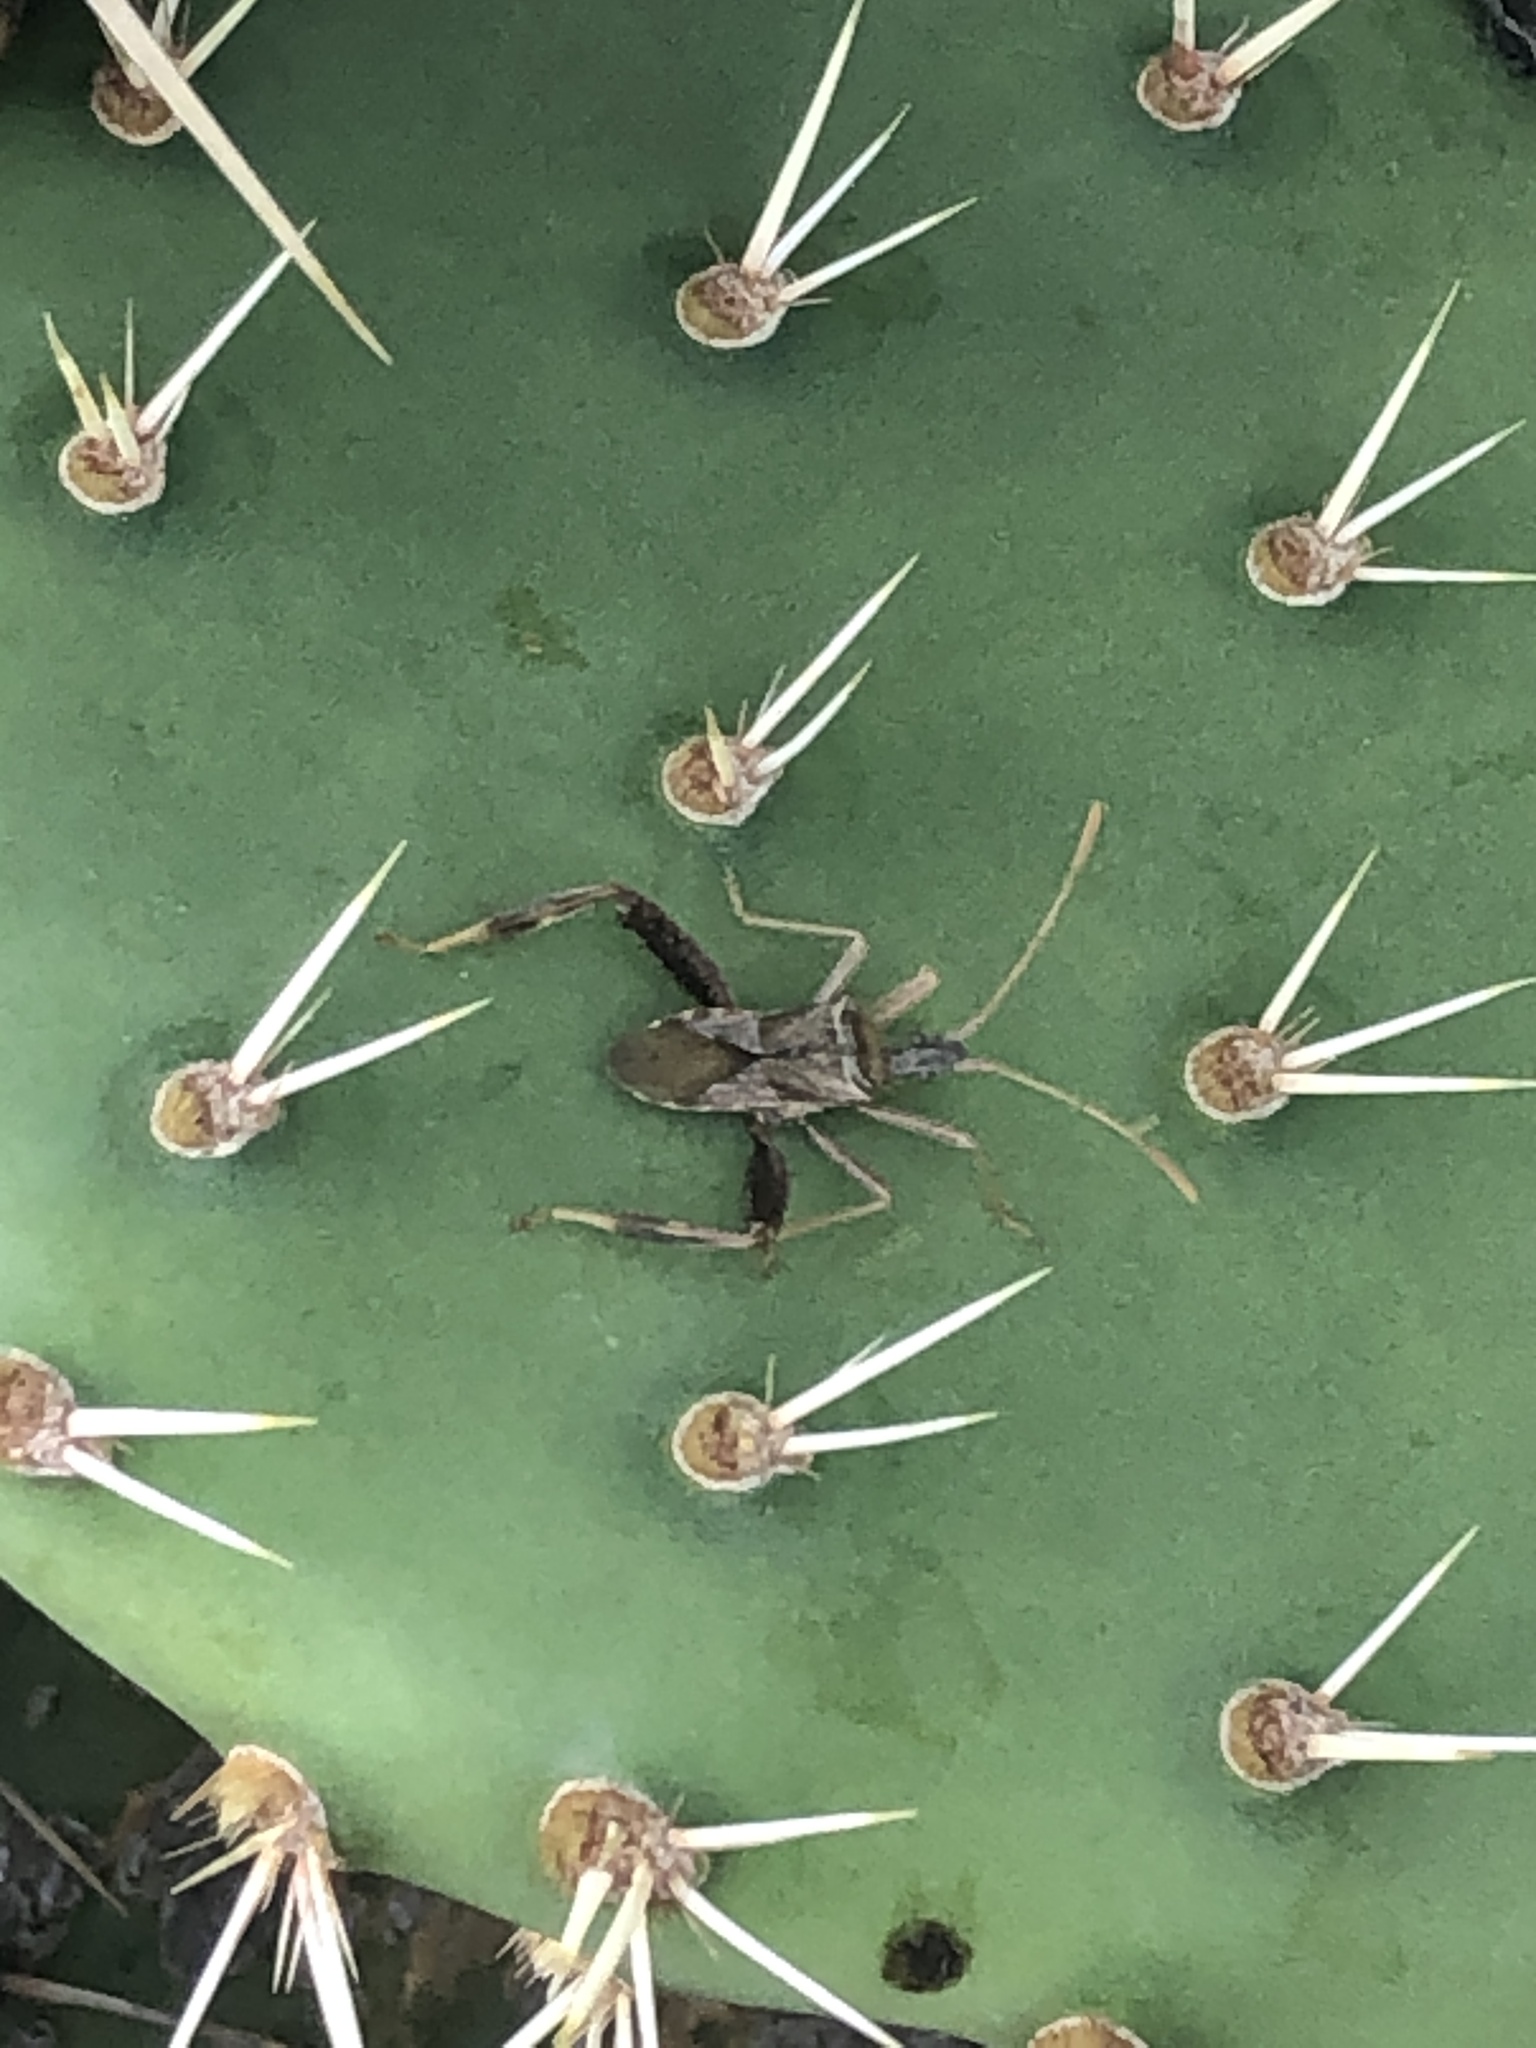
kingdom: Animalia
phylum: Arthropoda
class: Insecta
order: Hemiptera
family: Coreidae
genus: Narnia
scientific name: Narnia femorata
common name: Leaf-footed cactus bug
